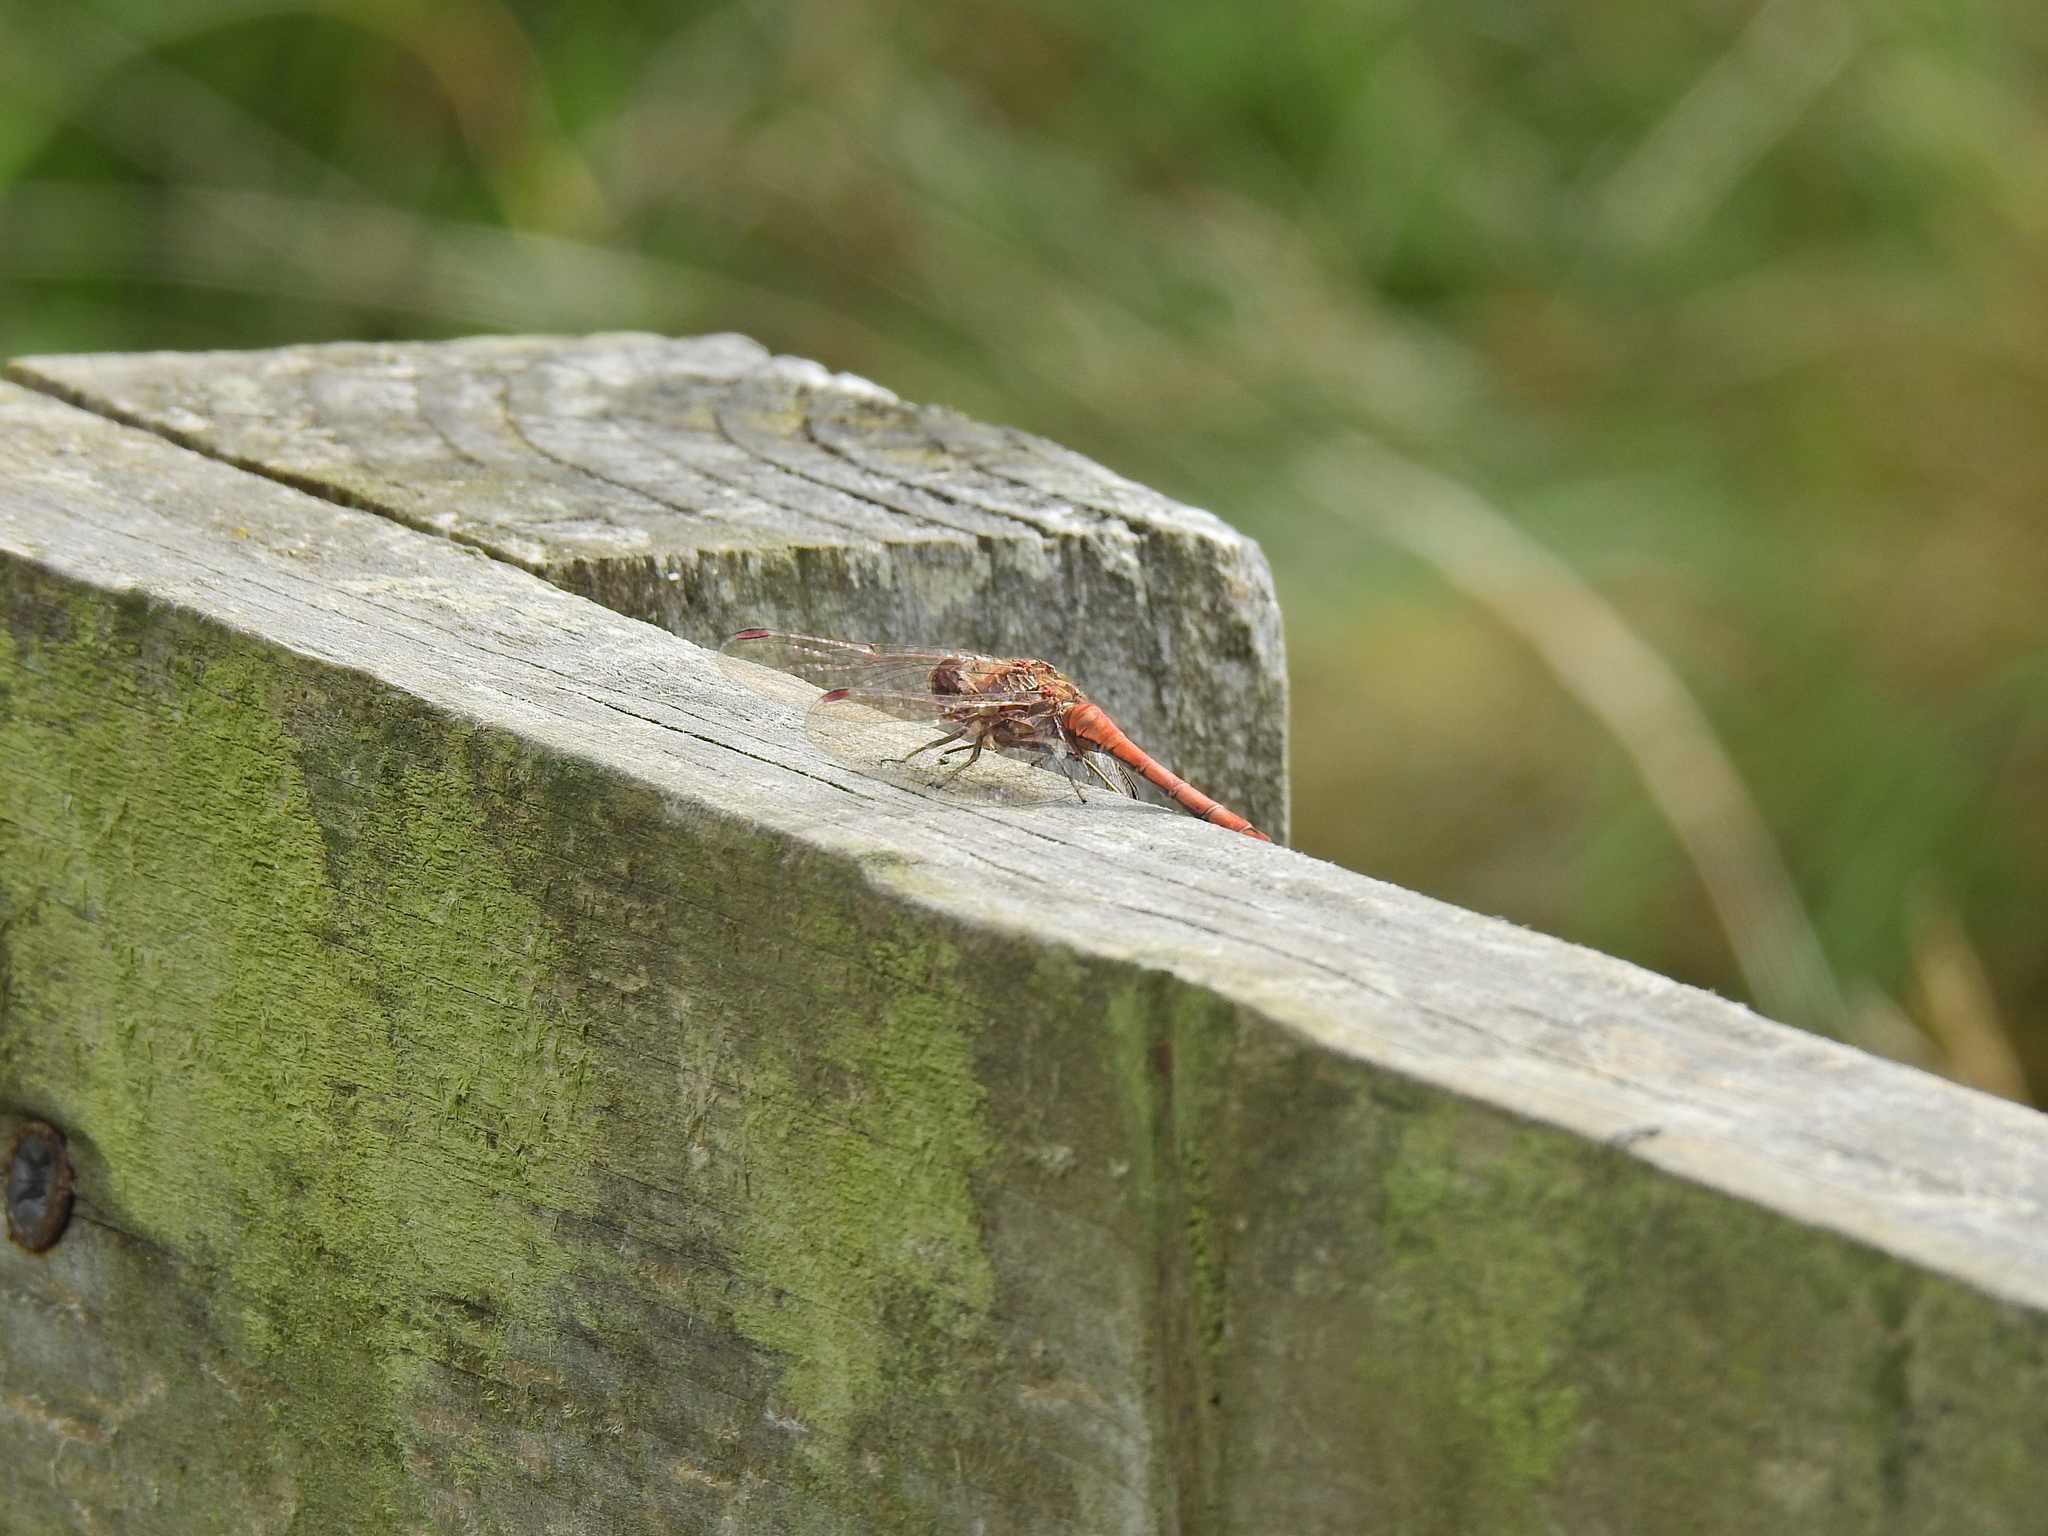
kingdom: Animalia
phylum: Arthropoda
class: Insecta
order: Odonata
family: Libellulidae
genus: Sympetrum
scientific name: Sympetrum striolatum
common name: Common darter
